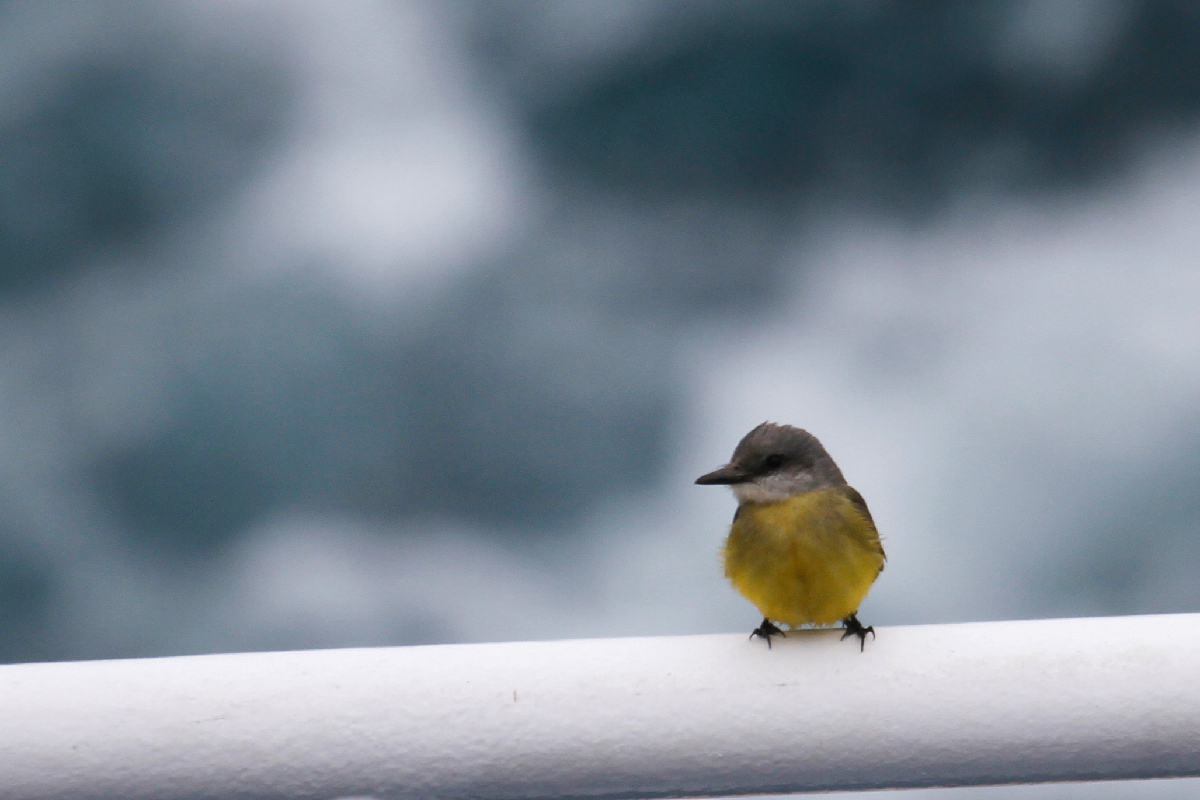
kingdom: Animalia
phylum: Chordata
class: Aves
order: Passeriformes
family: Tyrannidae
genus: Tyrannus
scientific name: Tyrannus melancholicus
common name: Tropical kingbird
